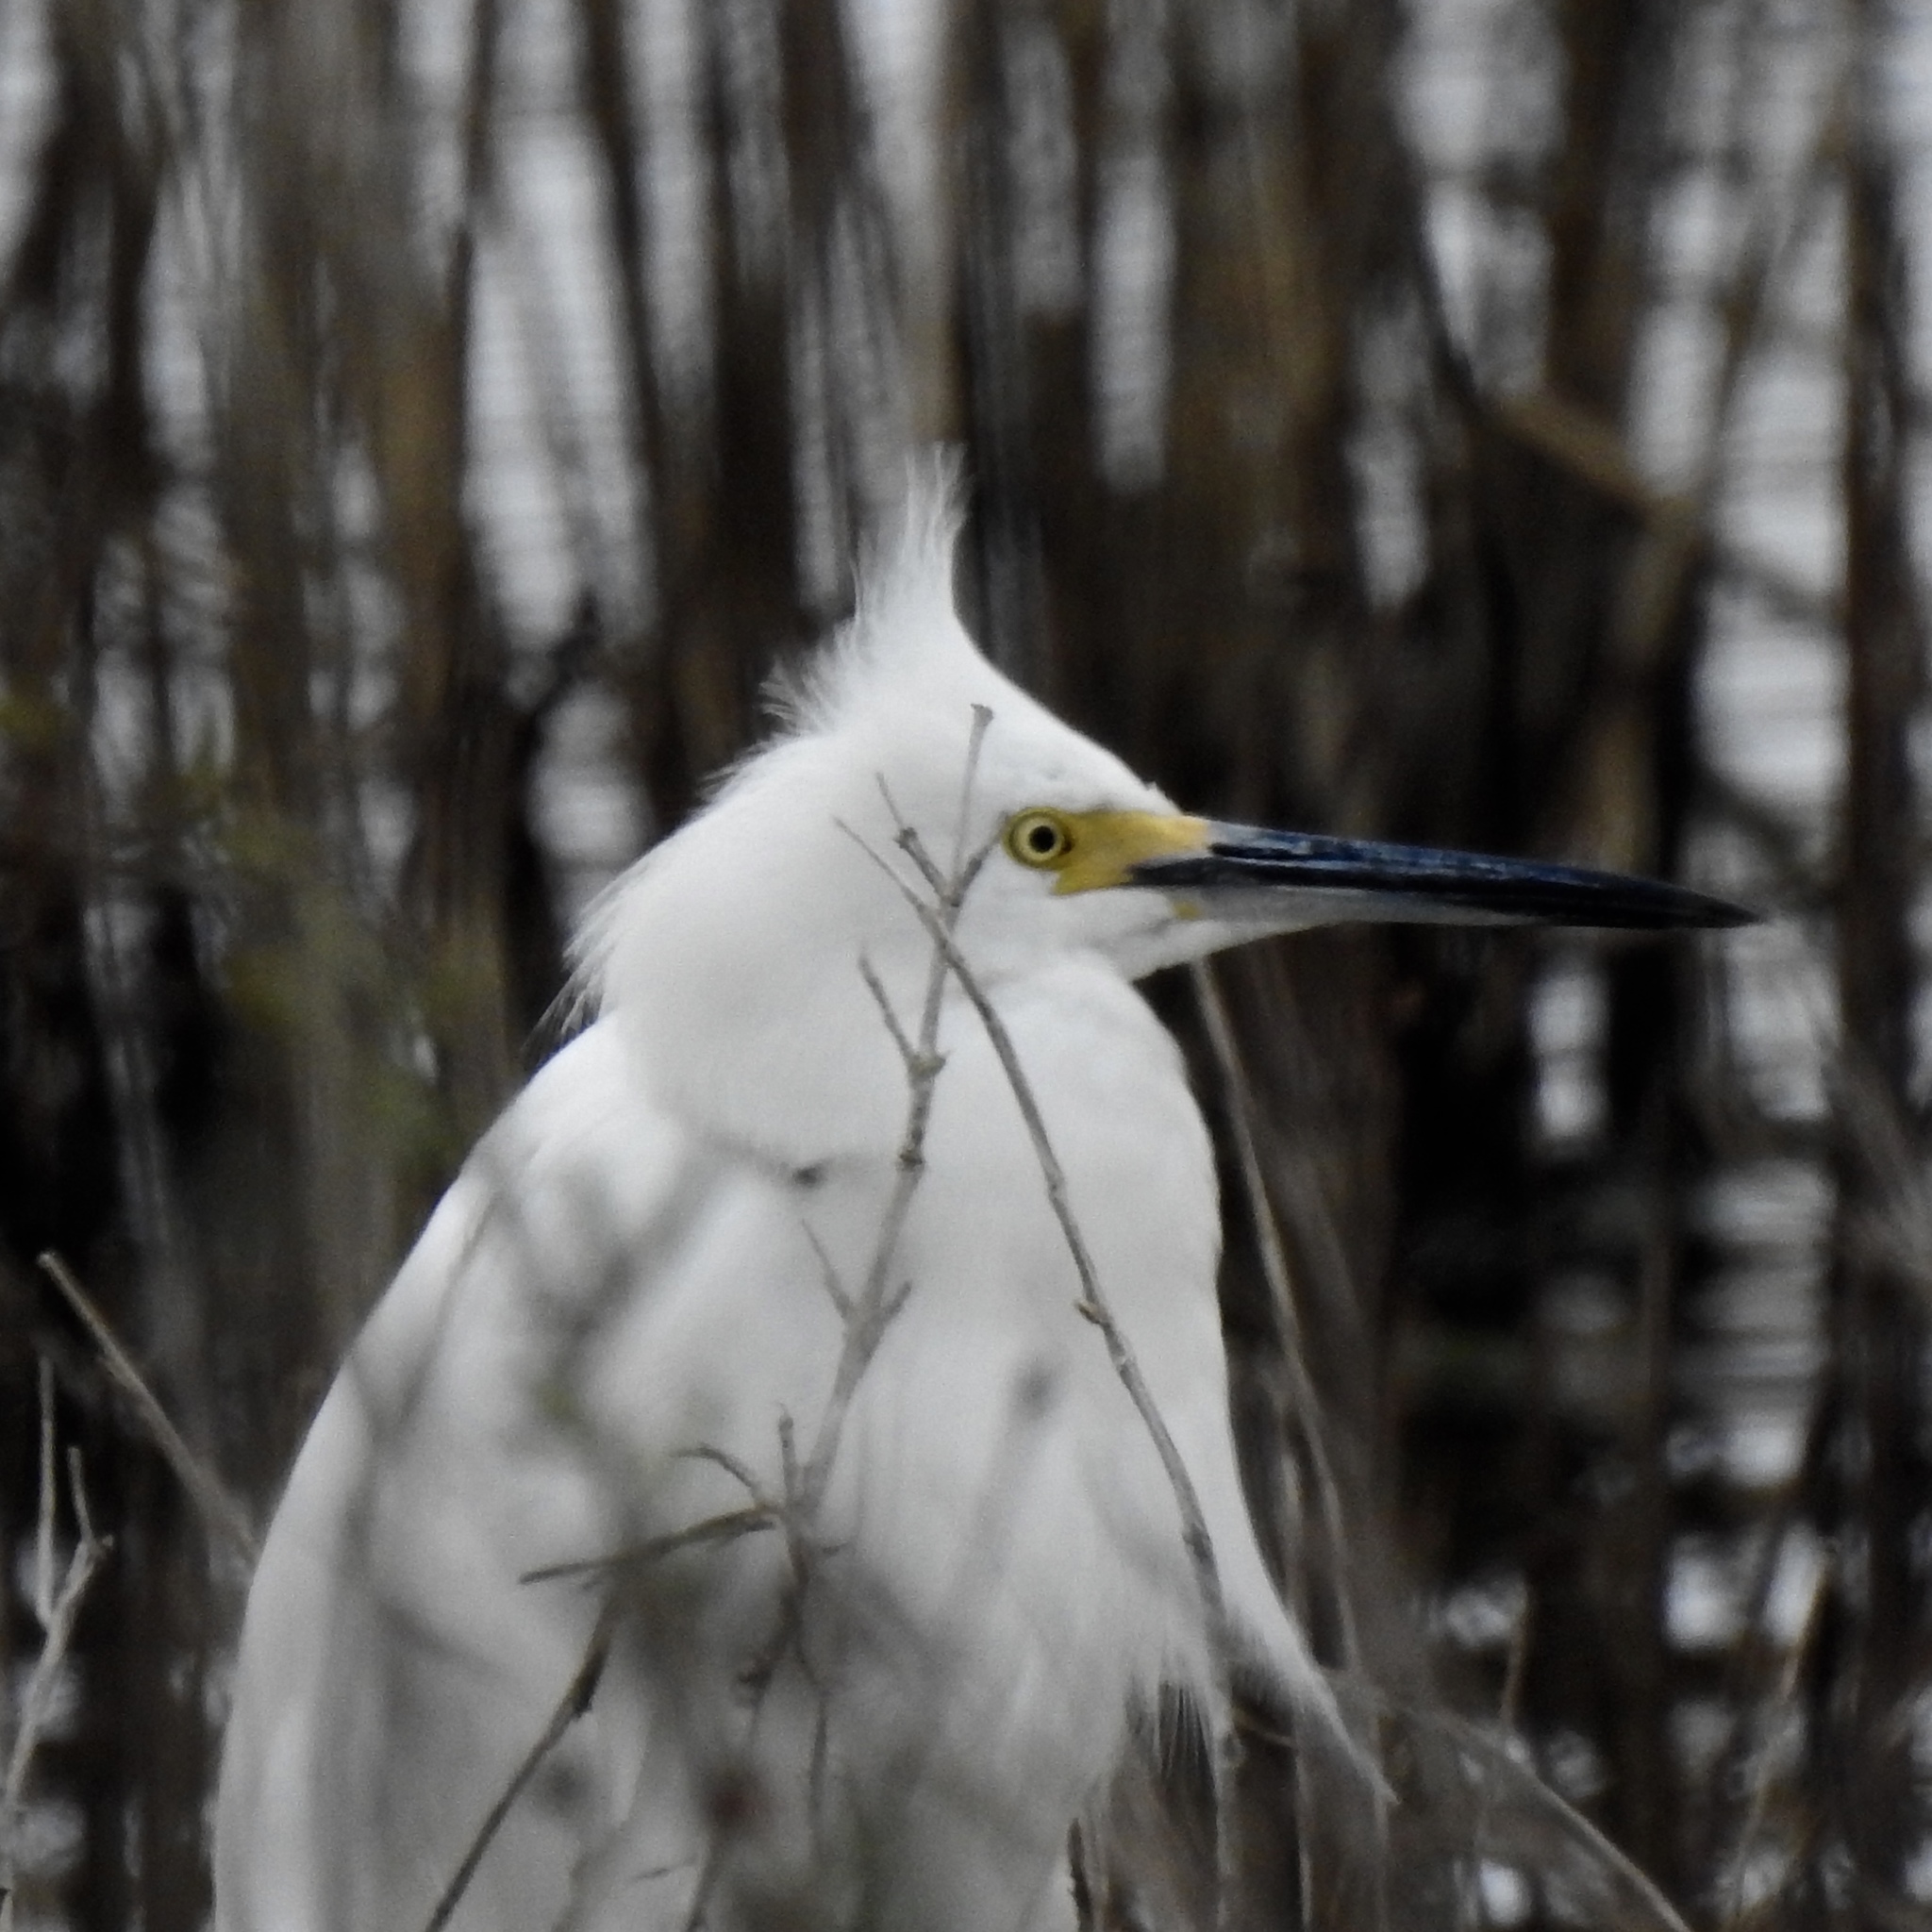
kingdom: Animalia
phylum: Chordata
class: Aves
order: Pelecaniformes
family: Ardeidae
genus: Egretta
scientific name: Egretta thula
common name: Snowy egret
